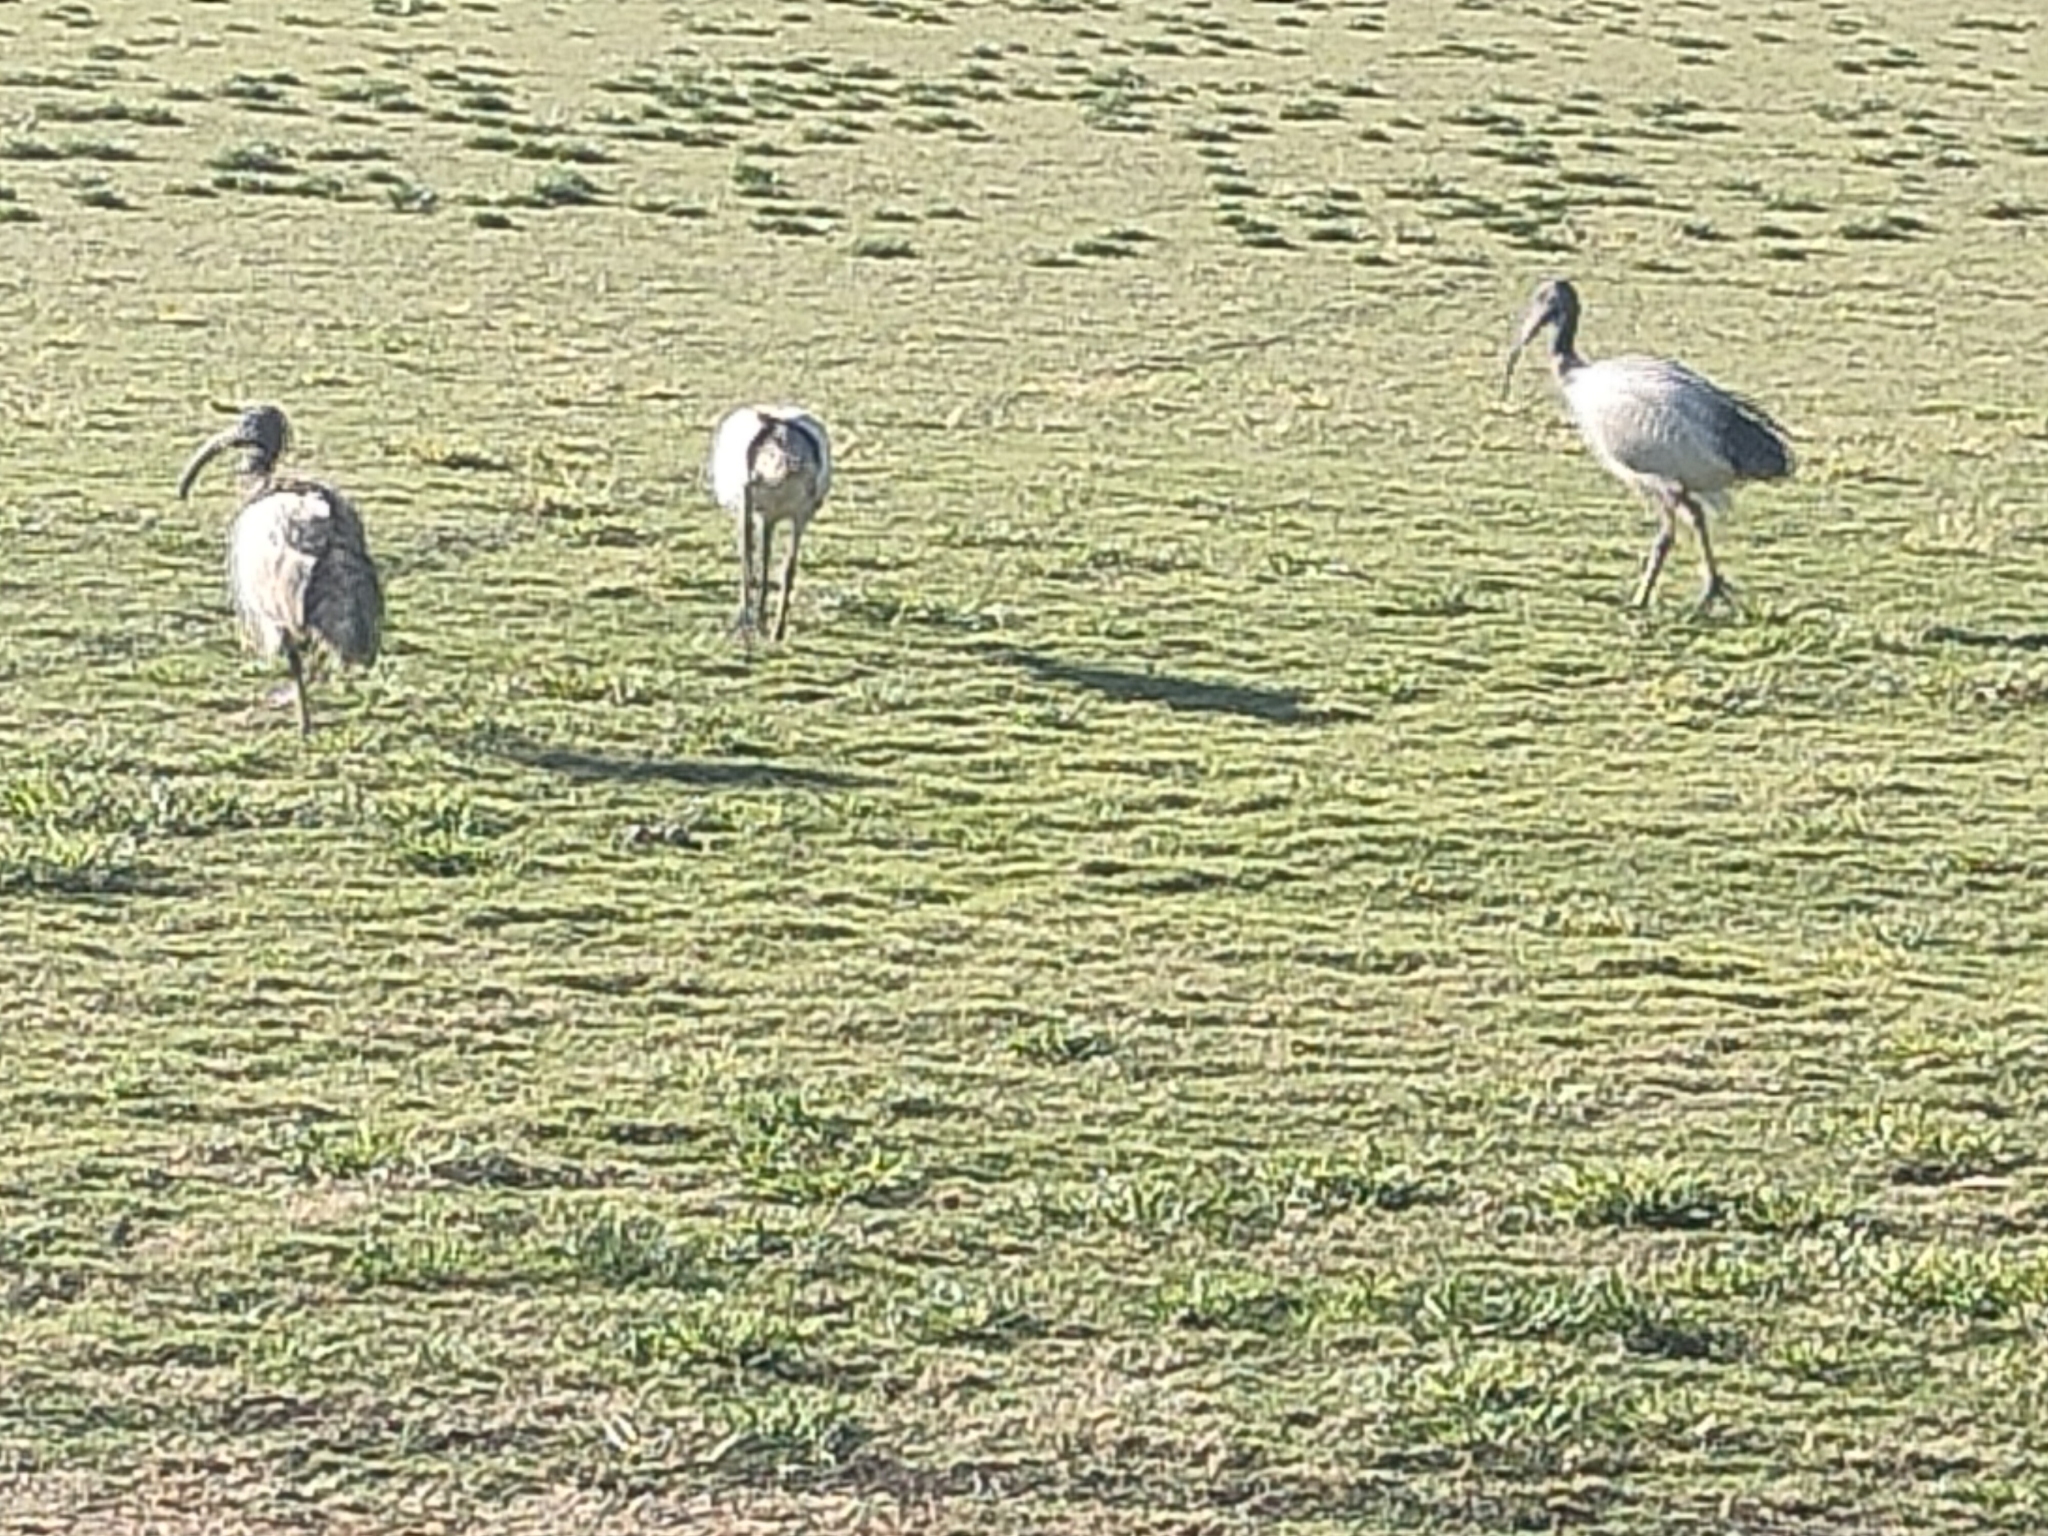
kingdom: Animalia
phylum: Chordata
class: Aves
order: Pelecaniformes
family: Threskiornithidae
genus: Threskiornis
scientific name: Threskiornis molucca
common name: Australian white ibis
